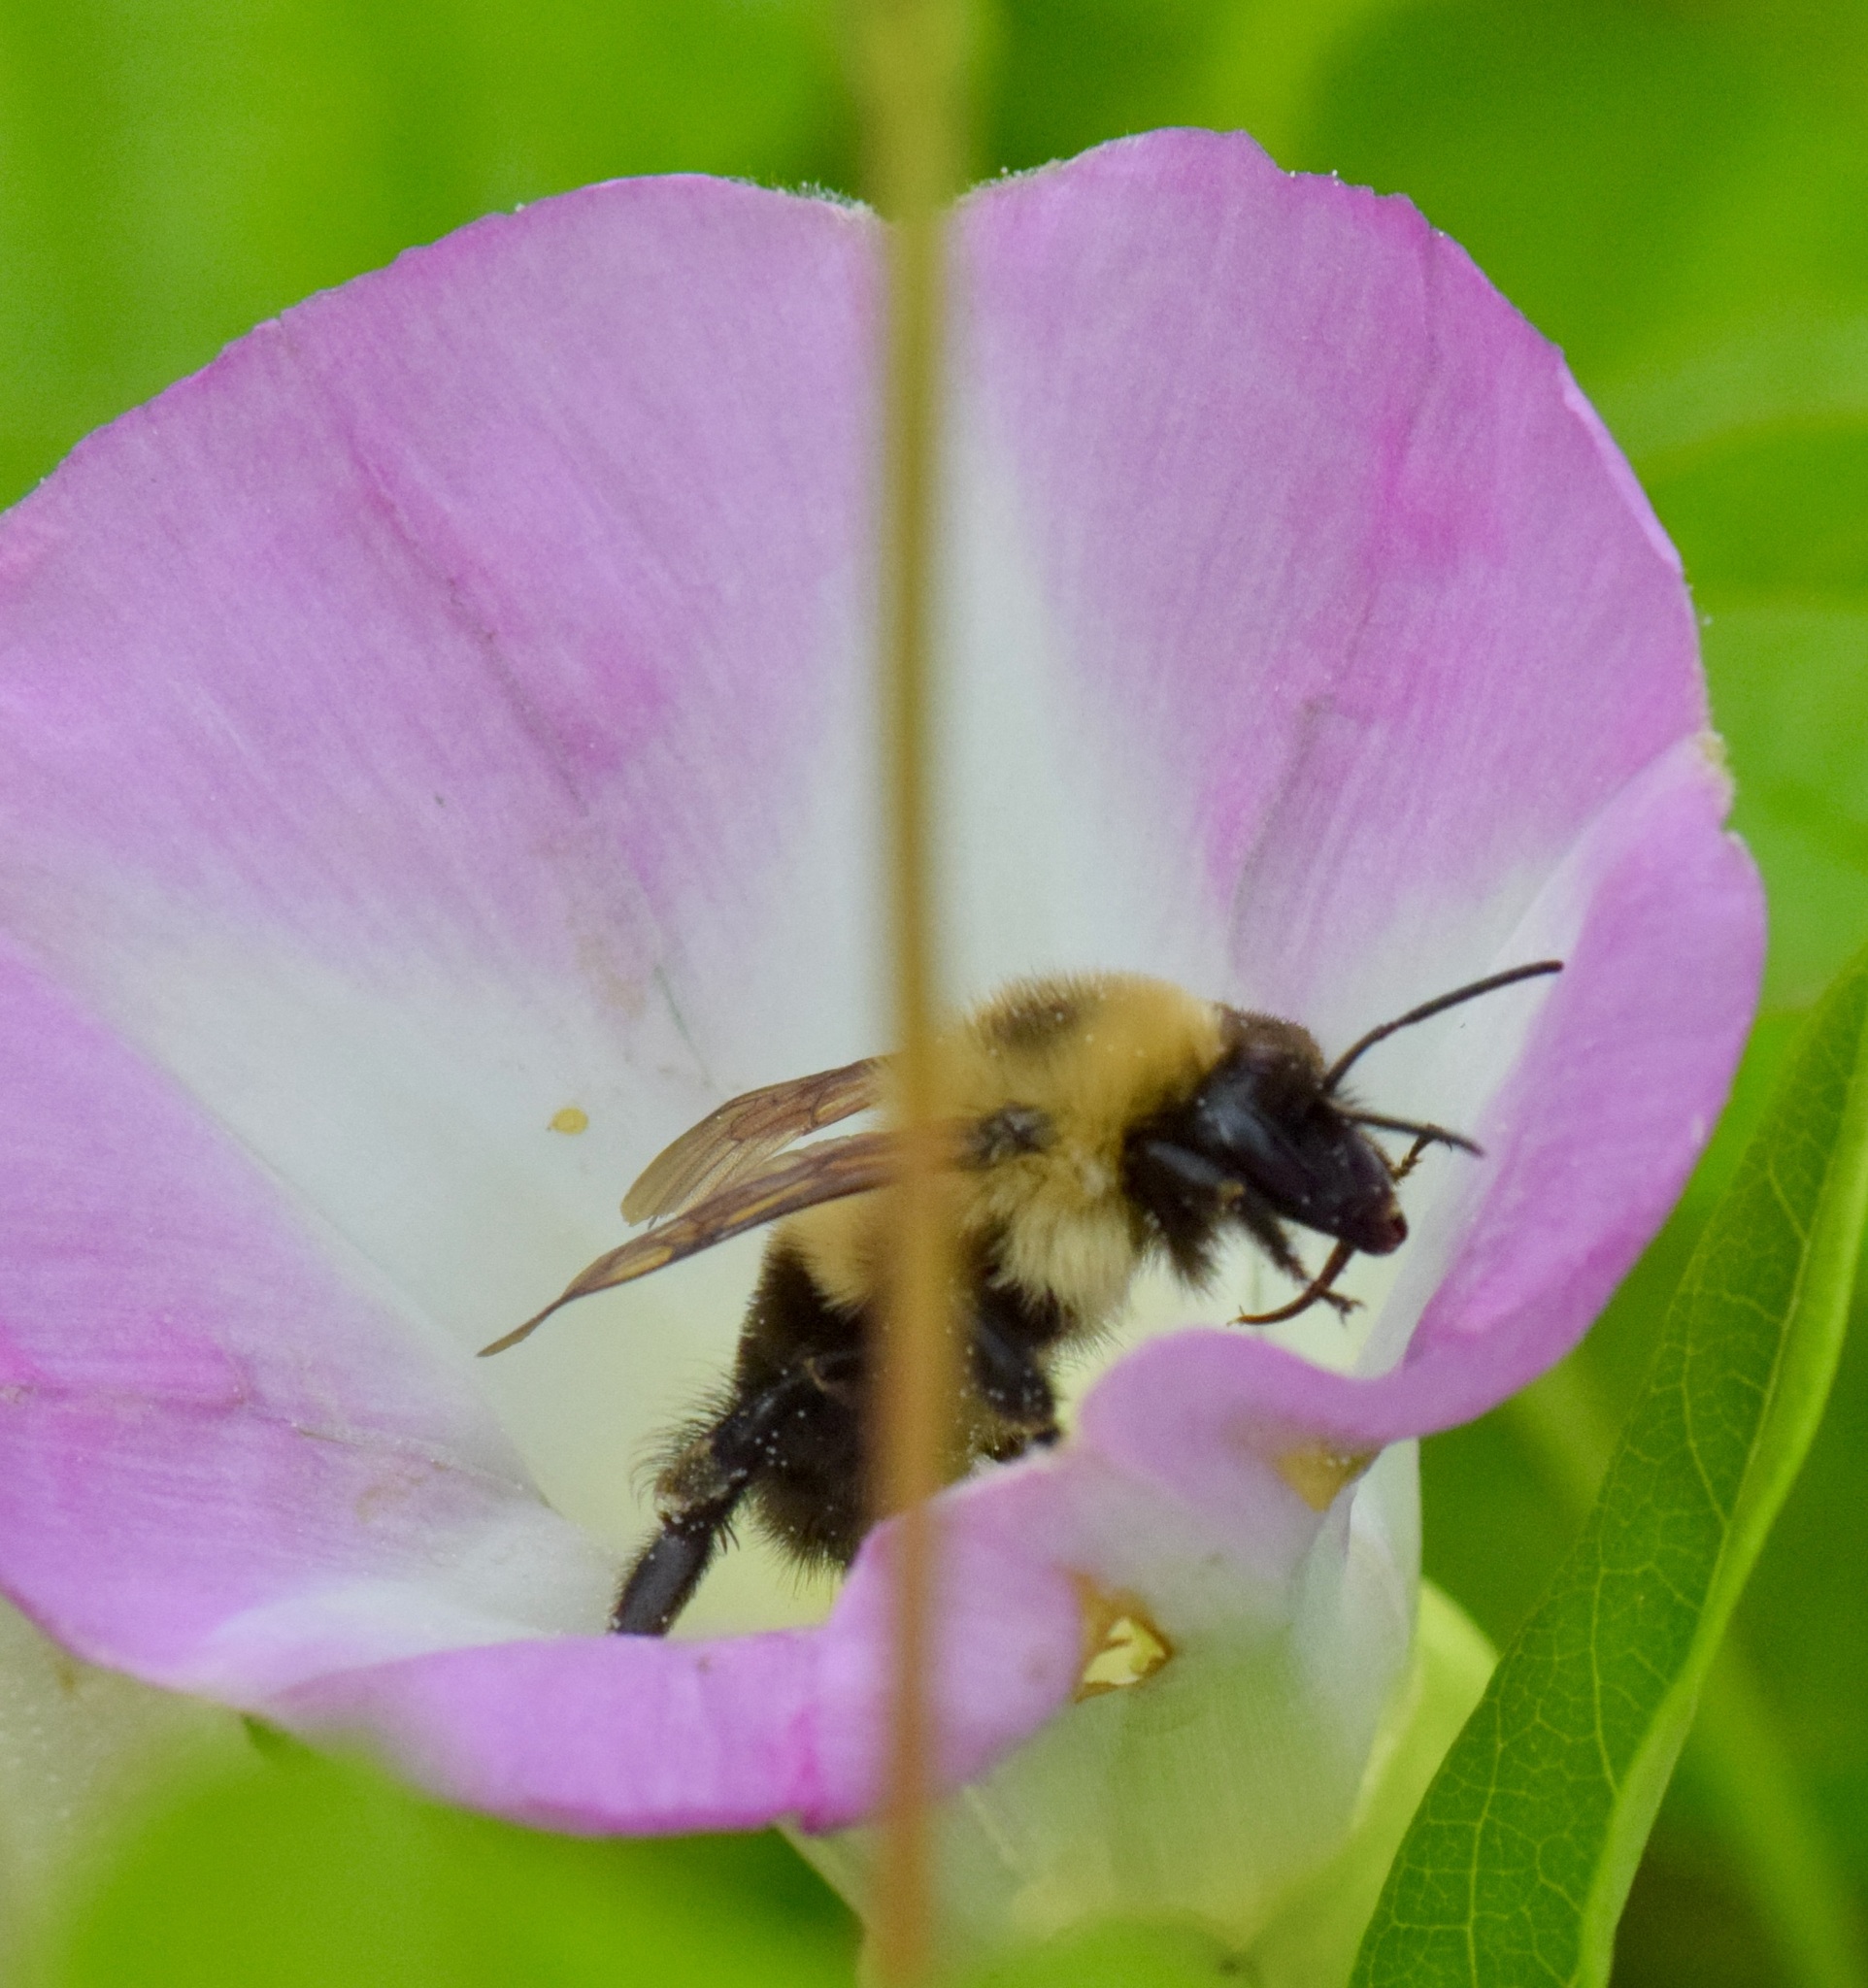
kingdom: Animalia
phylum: Arthropoda
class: Insecta
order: Hymenoptera
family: Apidae
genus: Bombus
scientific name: Bombus bimaculatus
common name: Two-spotted bumble bee
